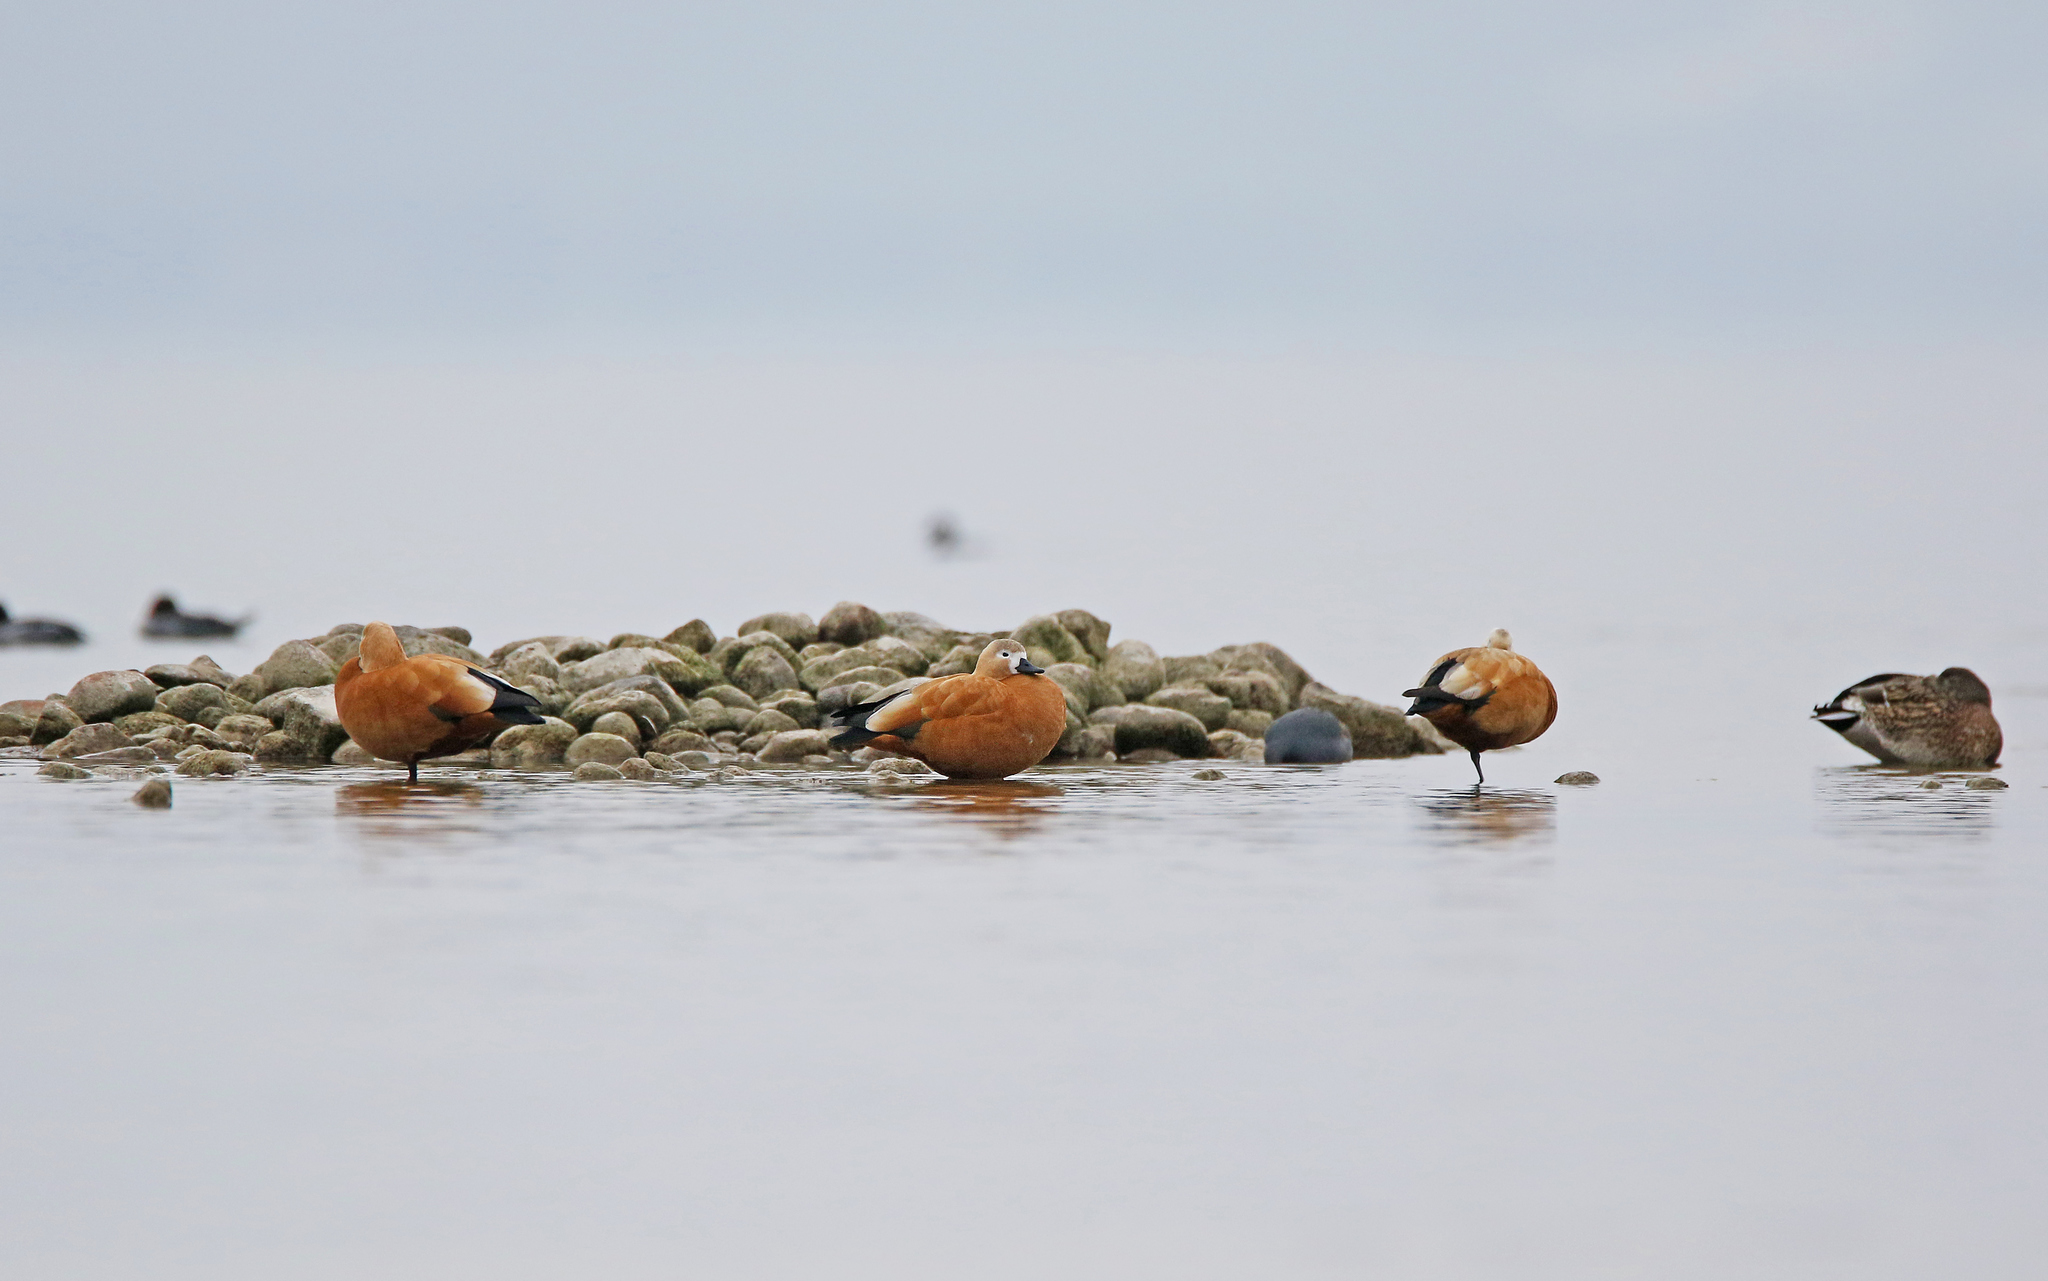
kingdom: Animalia
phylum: Chordata
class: Aves
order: Anseriformes
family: Anatidae
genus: Tadorna
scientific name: Tadorna ferruginea
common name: Ruddy shelduck
